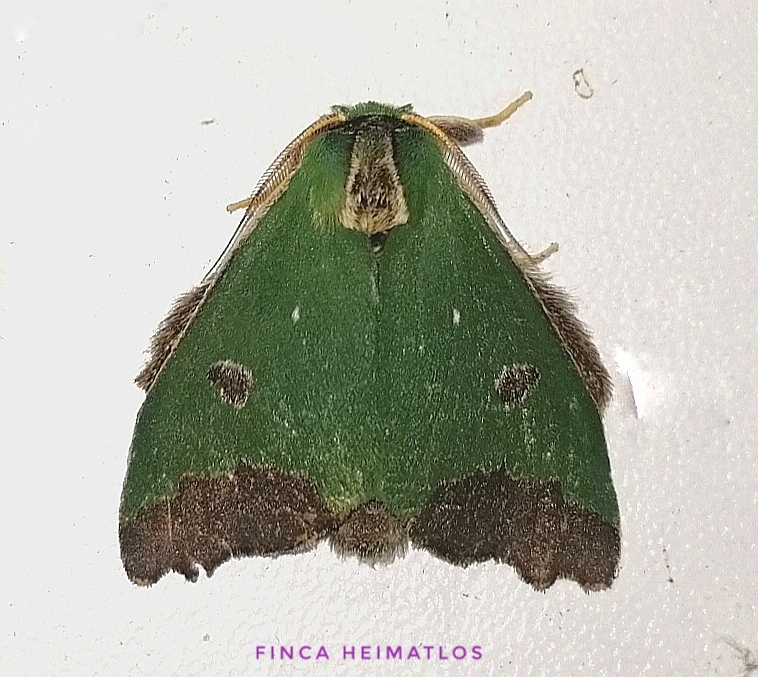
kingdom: Animalia
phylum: Arthropoda
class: Insecta
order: Lepidoptera
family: Notodontidae
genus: Rosema
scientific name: Rosema thestia
